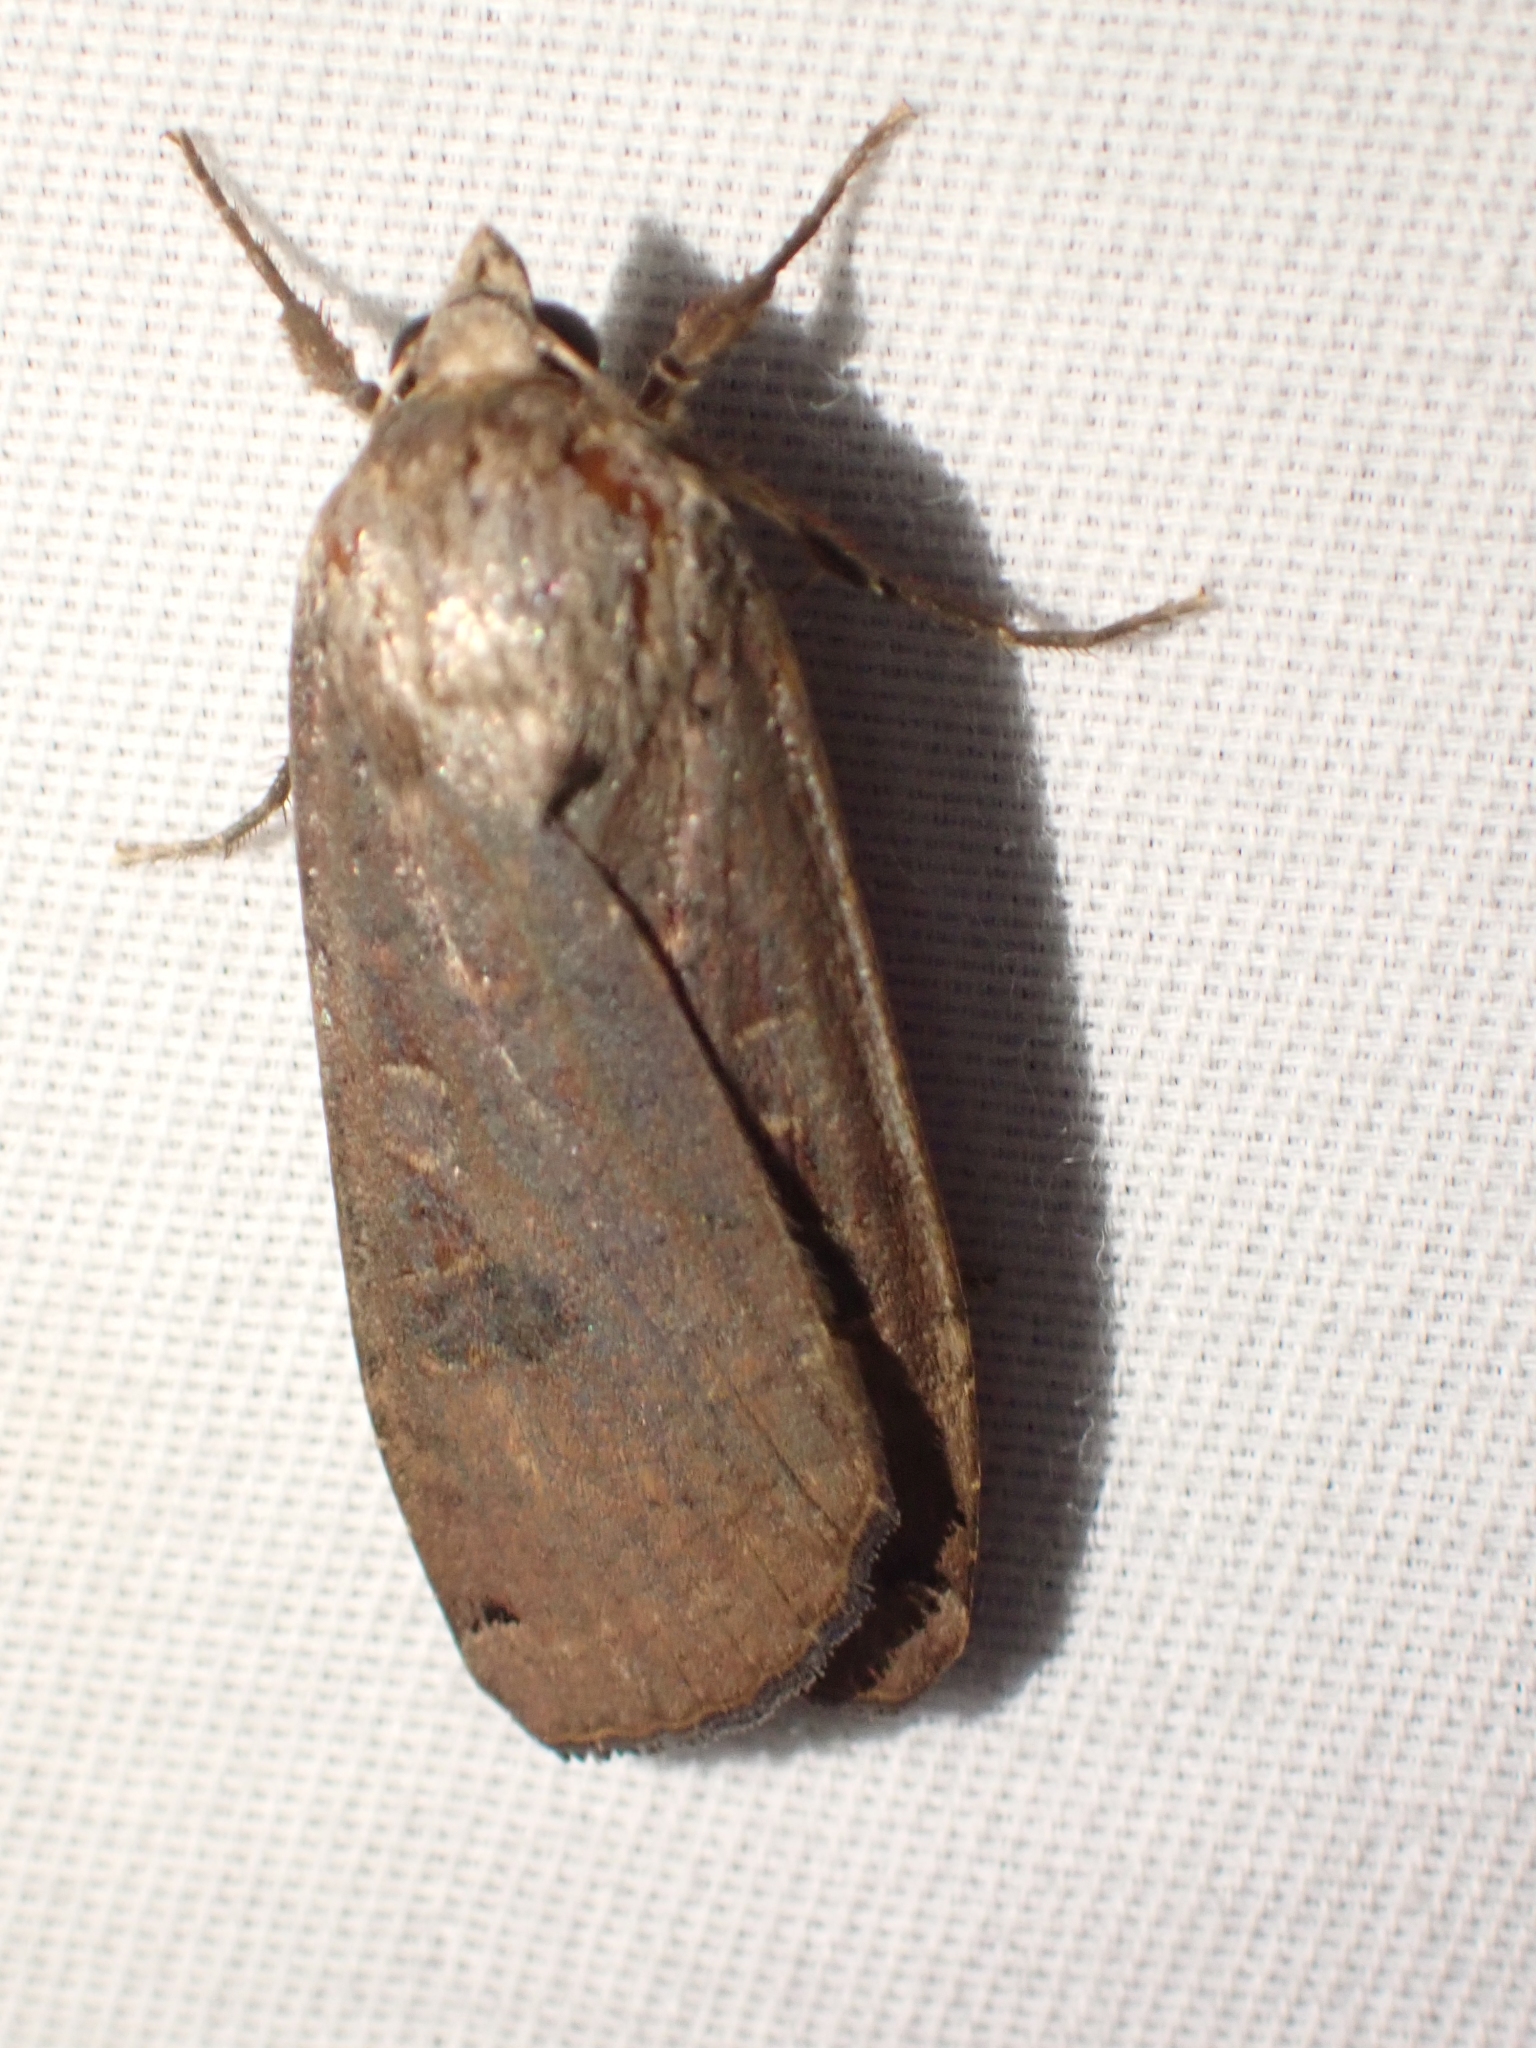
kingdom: Animalia
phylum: Arthropoda
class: Insecta
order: Lepidoptera
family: Noctuidae
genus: Noctua
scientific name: Noctua pronuba
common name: Large yellow underwing
